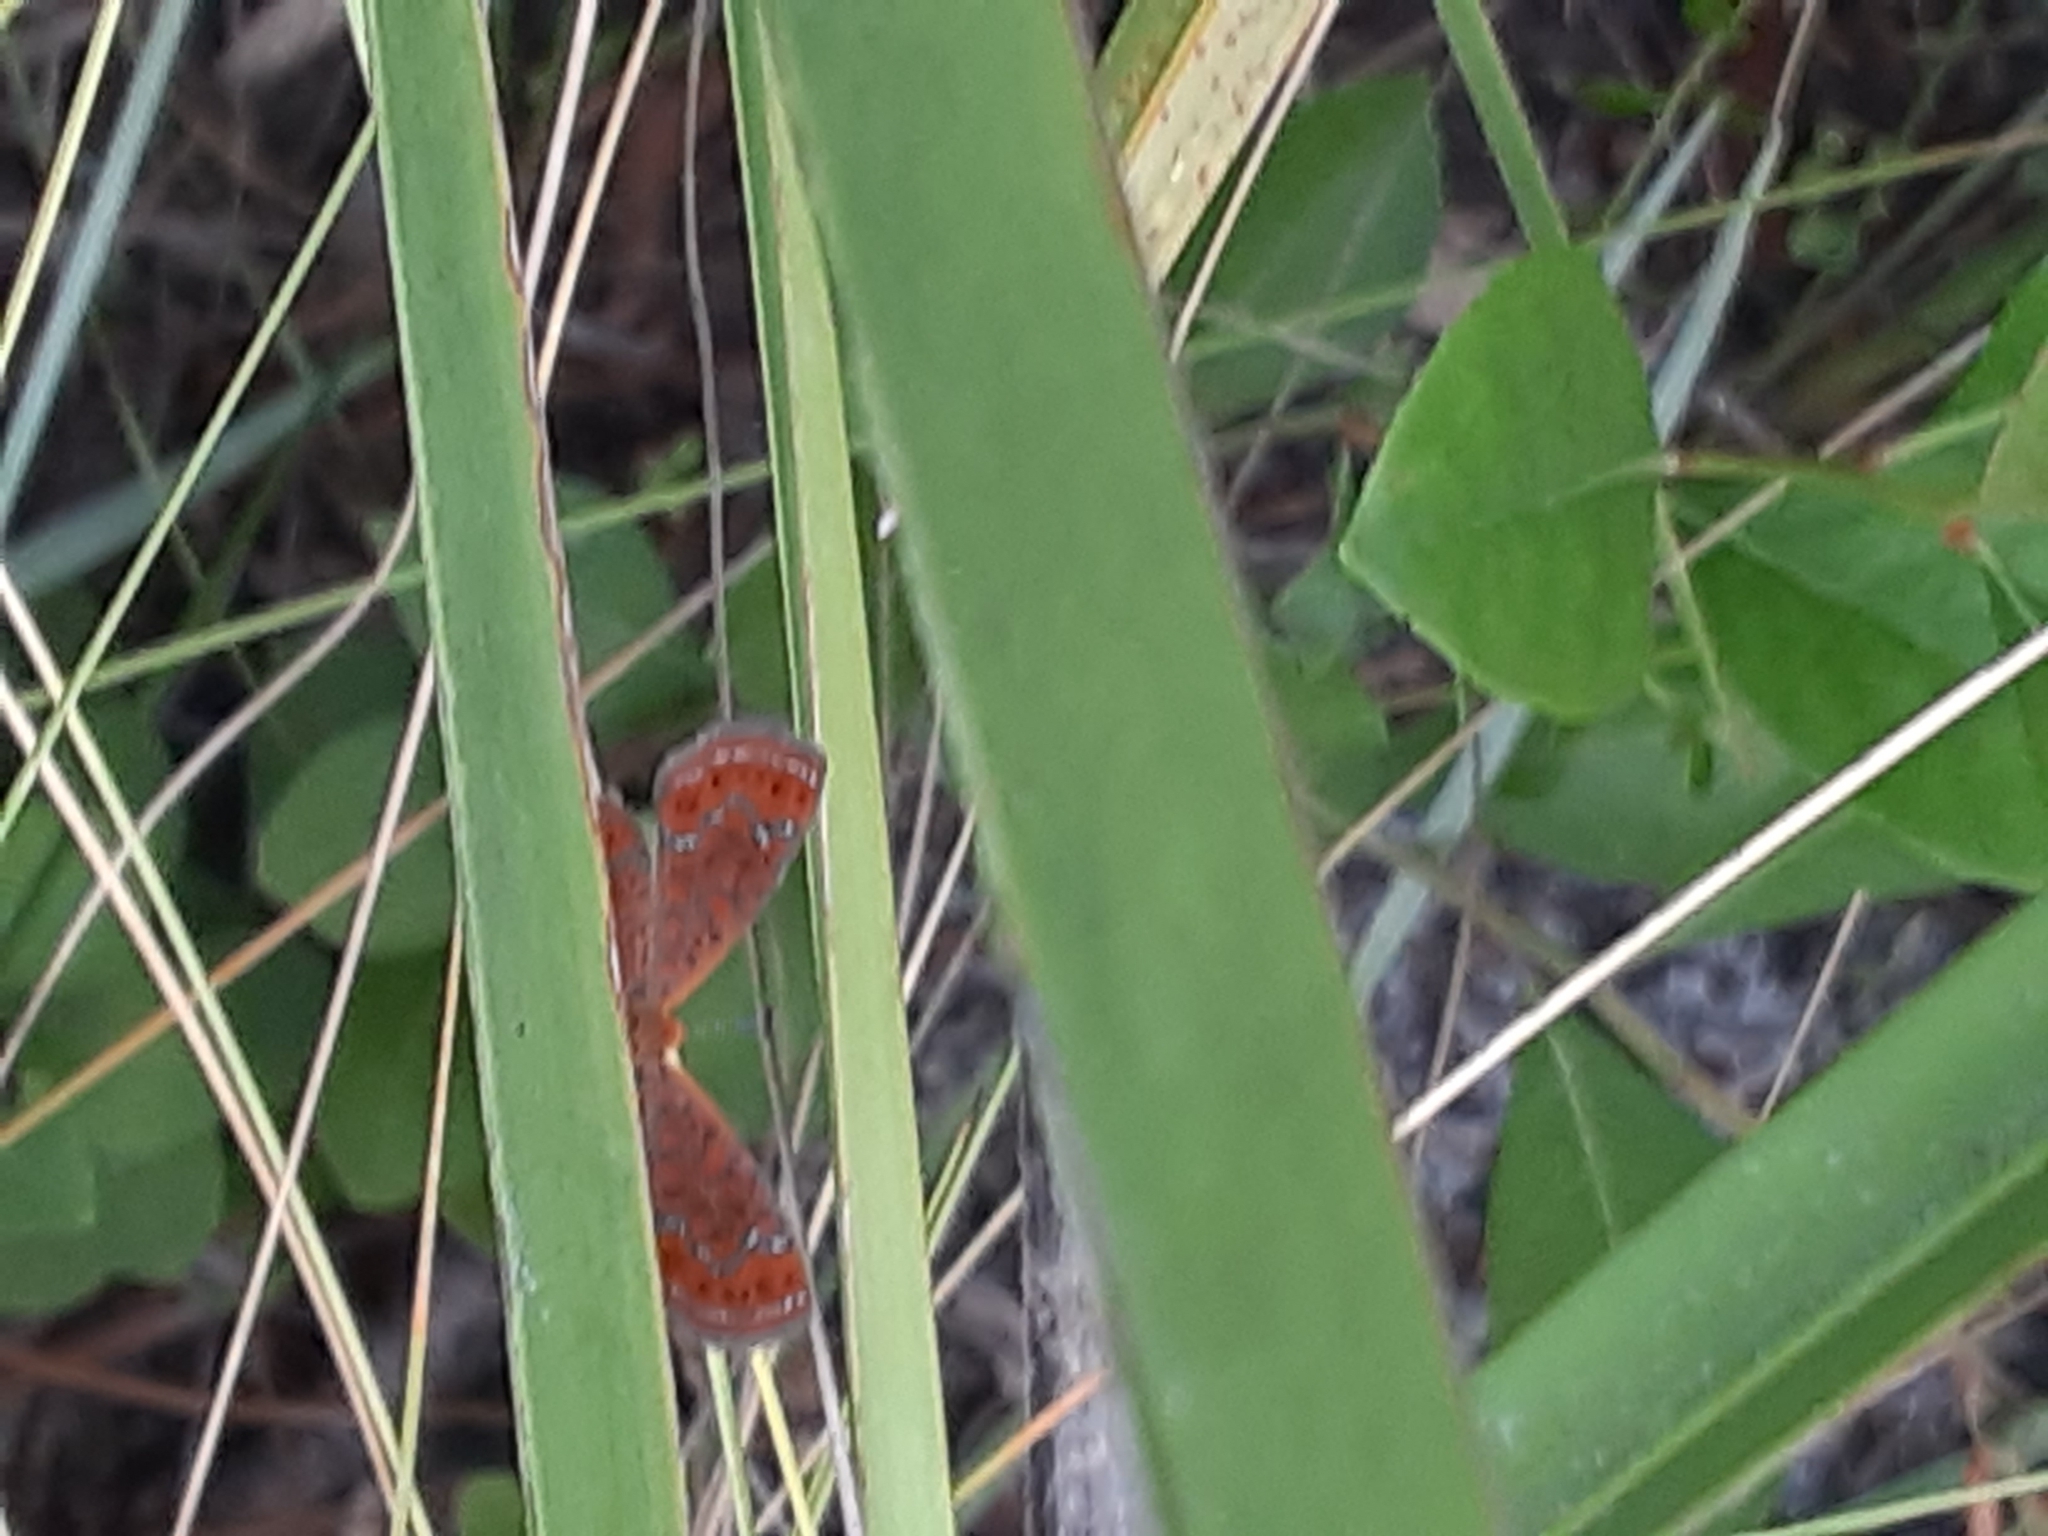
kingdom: Animalia
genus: Calephelis
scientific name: Calephelis virginiensis
